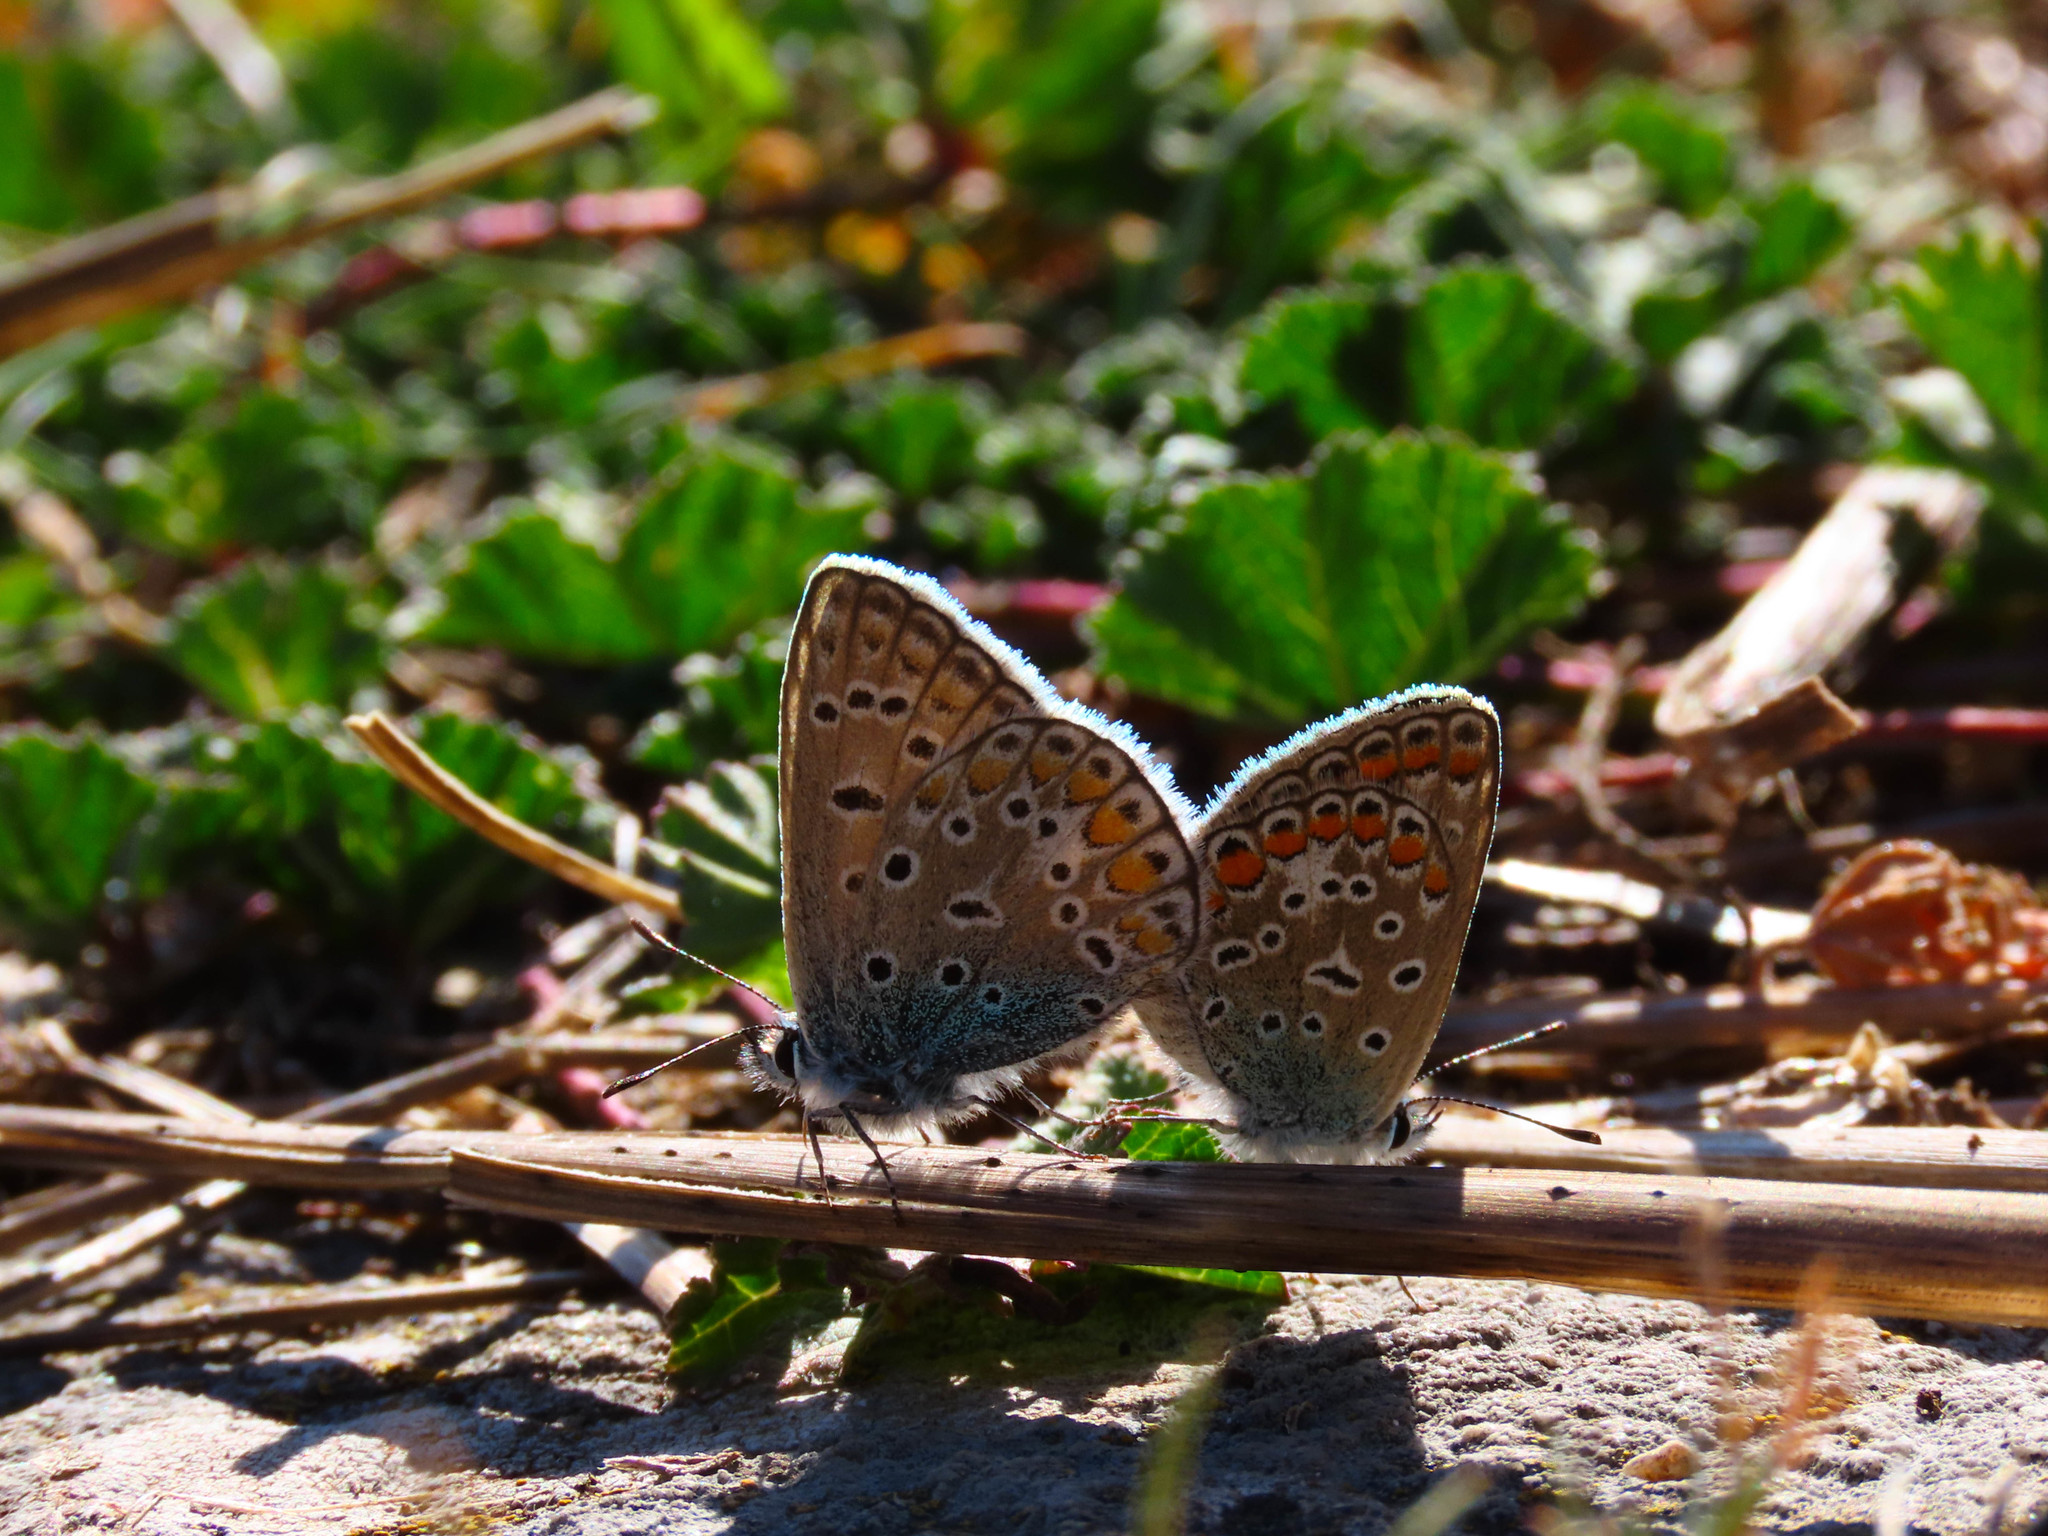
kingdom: Animalia
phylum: Arthropoda
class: Insecta
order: Lepidoptera
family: Lycaenidae
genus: Polyommatus
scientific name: Polyommatus icarus
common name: Common blue
